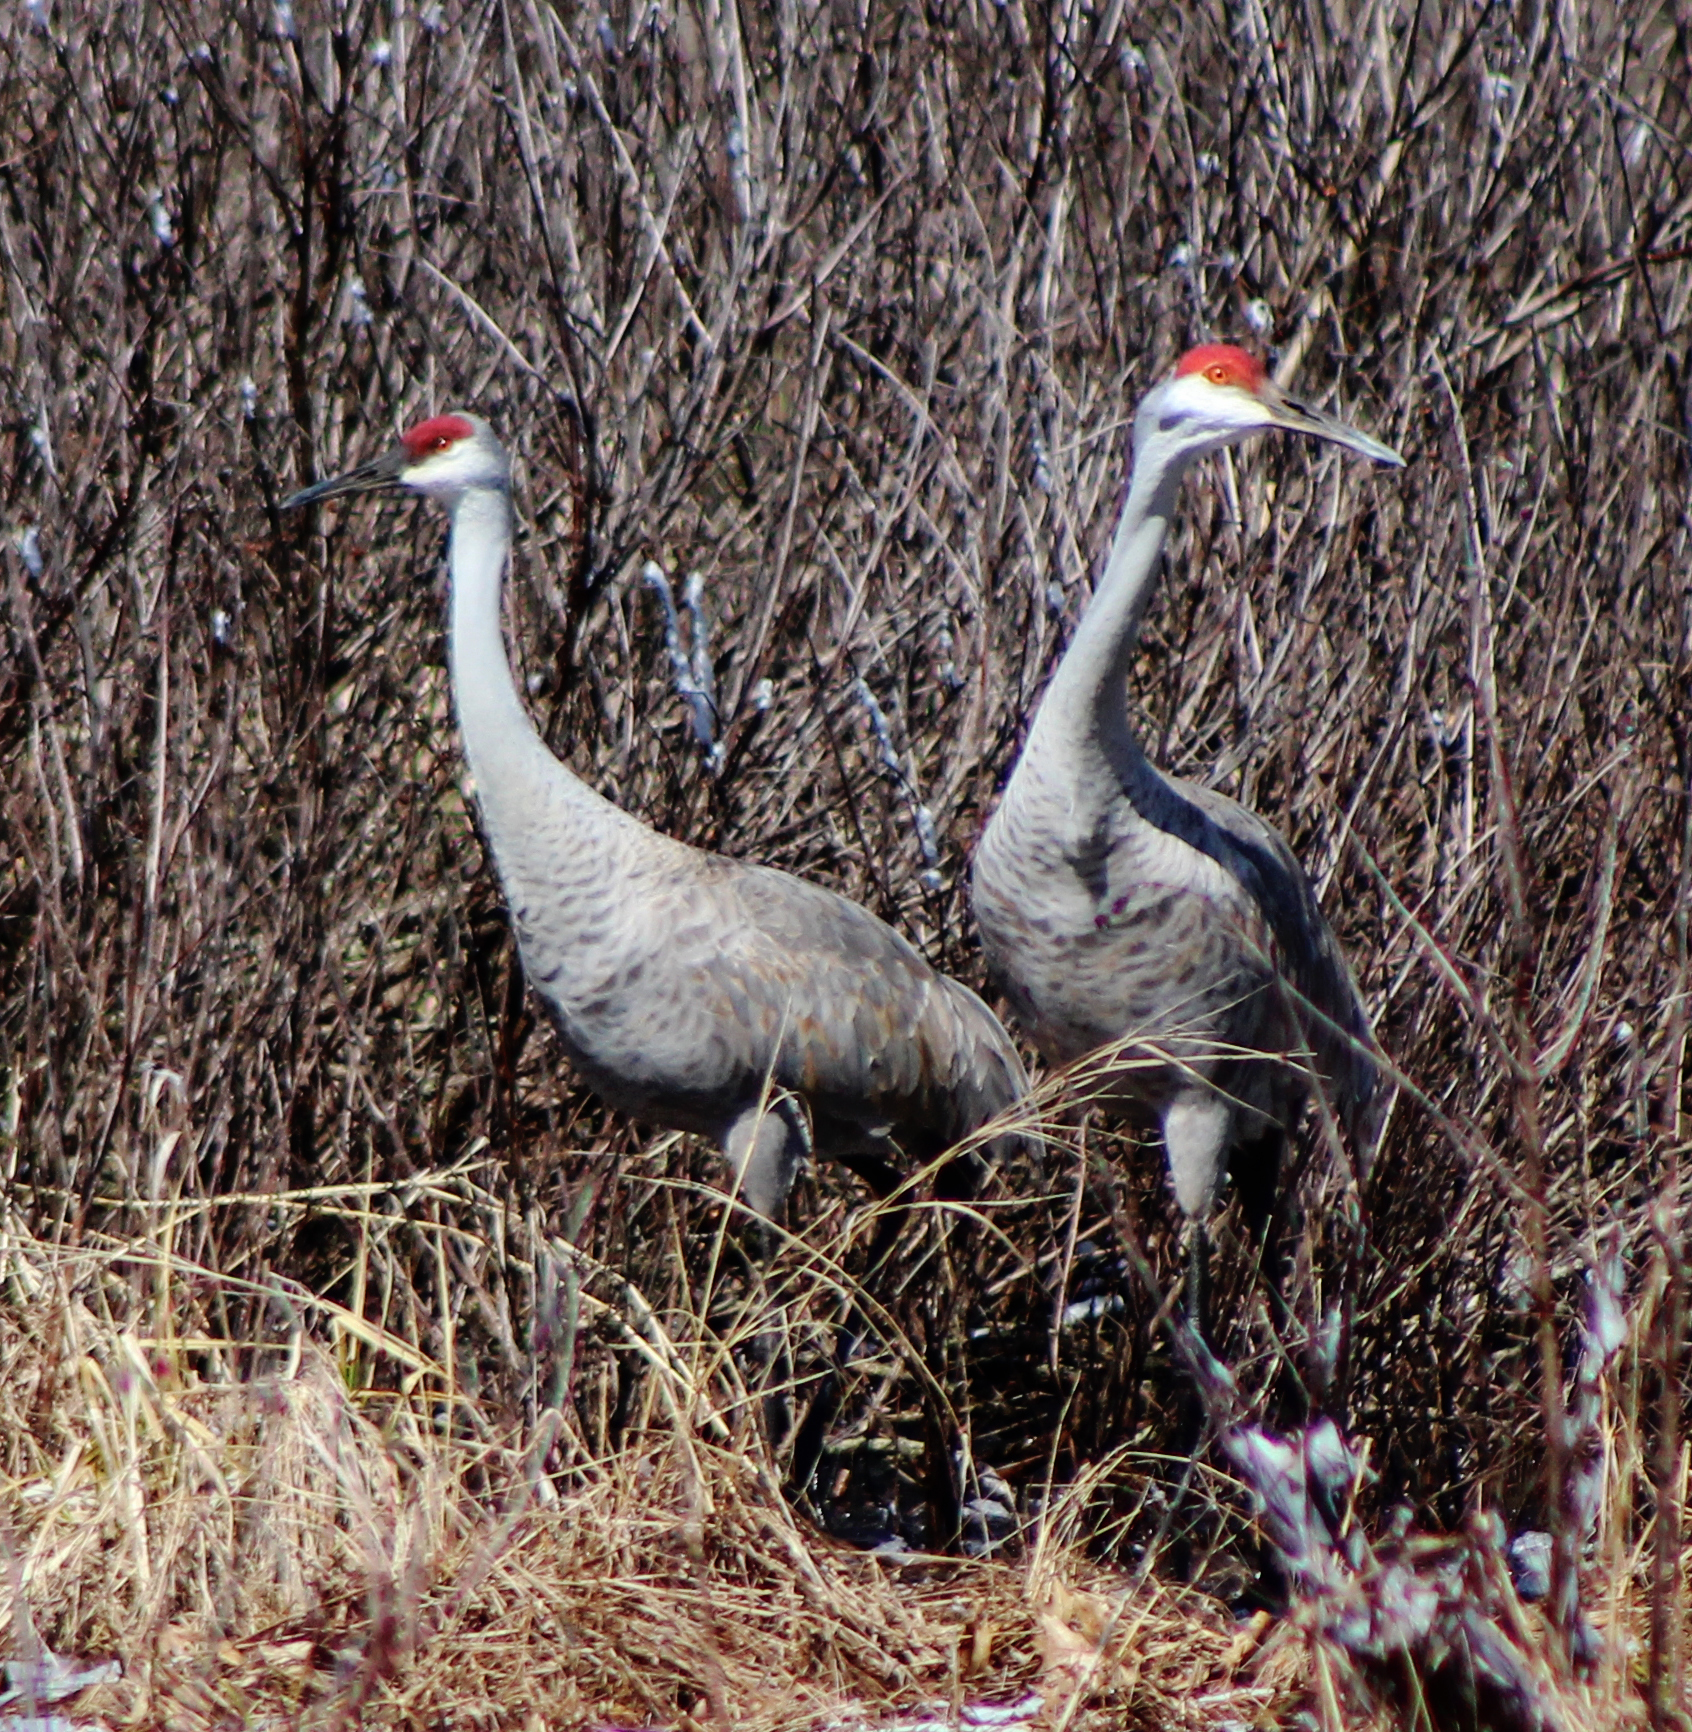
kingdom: Animalia
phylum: Chordata
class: Aves
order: Gruiformes
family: Gruidae
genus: Grus
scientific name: Grus canadensis
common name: Sandhill crane
